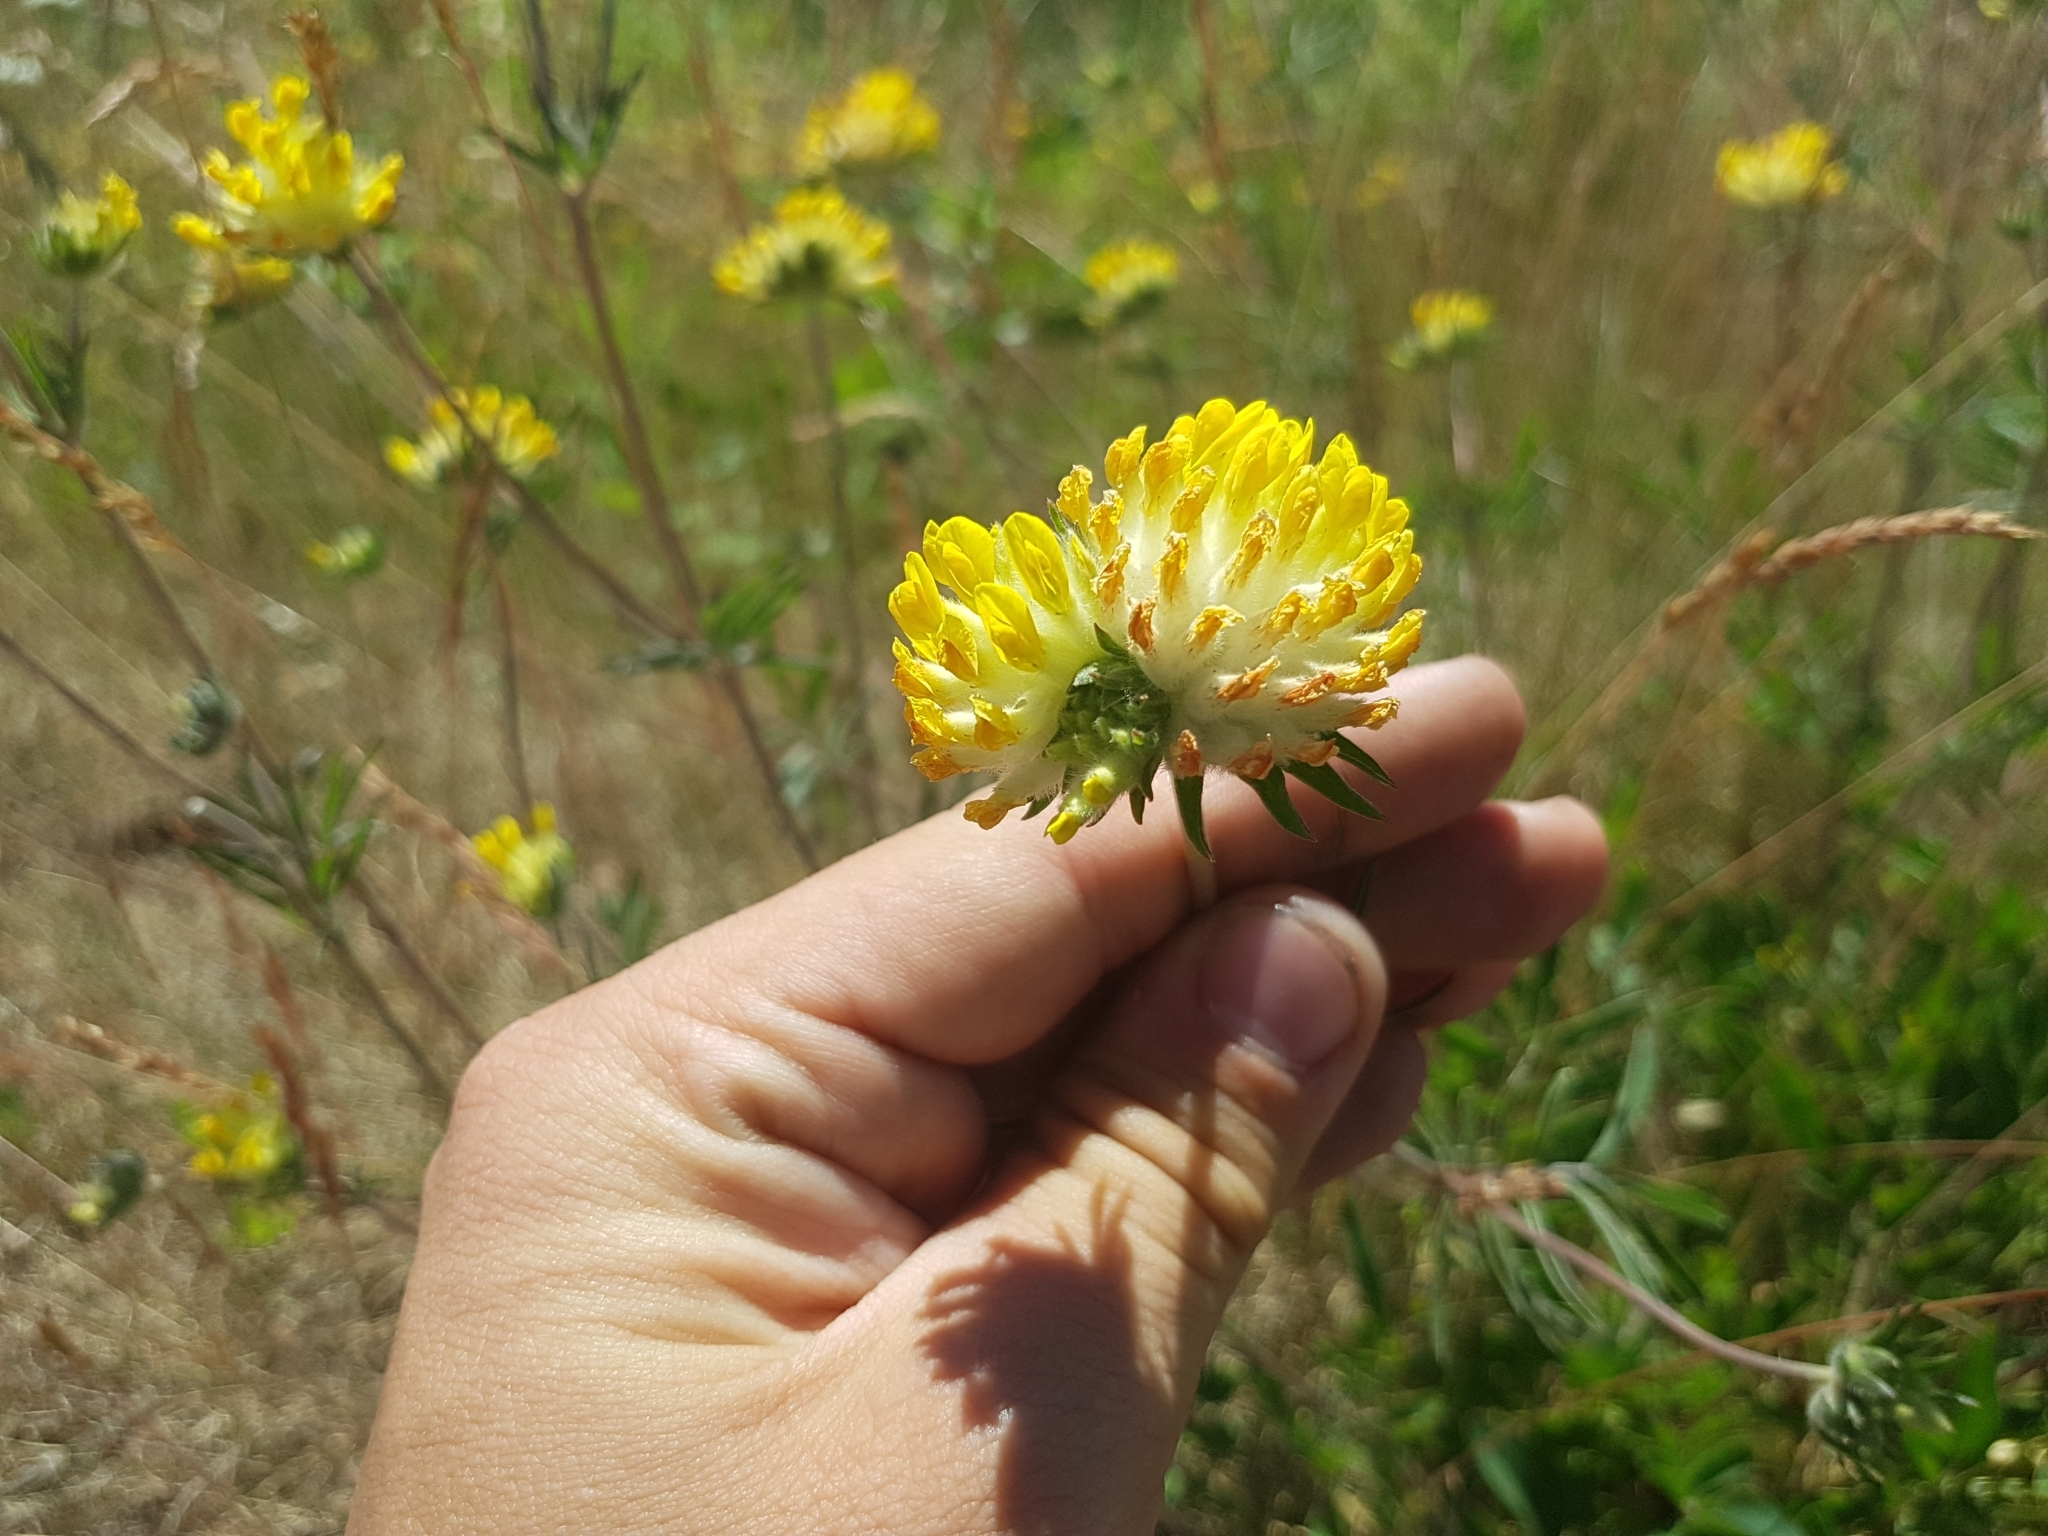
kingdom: Plantae
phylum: Tracheophyta
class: Magnoliopsida
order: Fabales
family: Fabaceae
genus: Anthyllis
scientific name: Anthyllis vulneraria
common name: Kidney vetch
